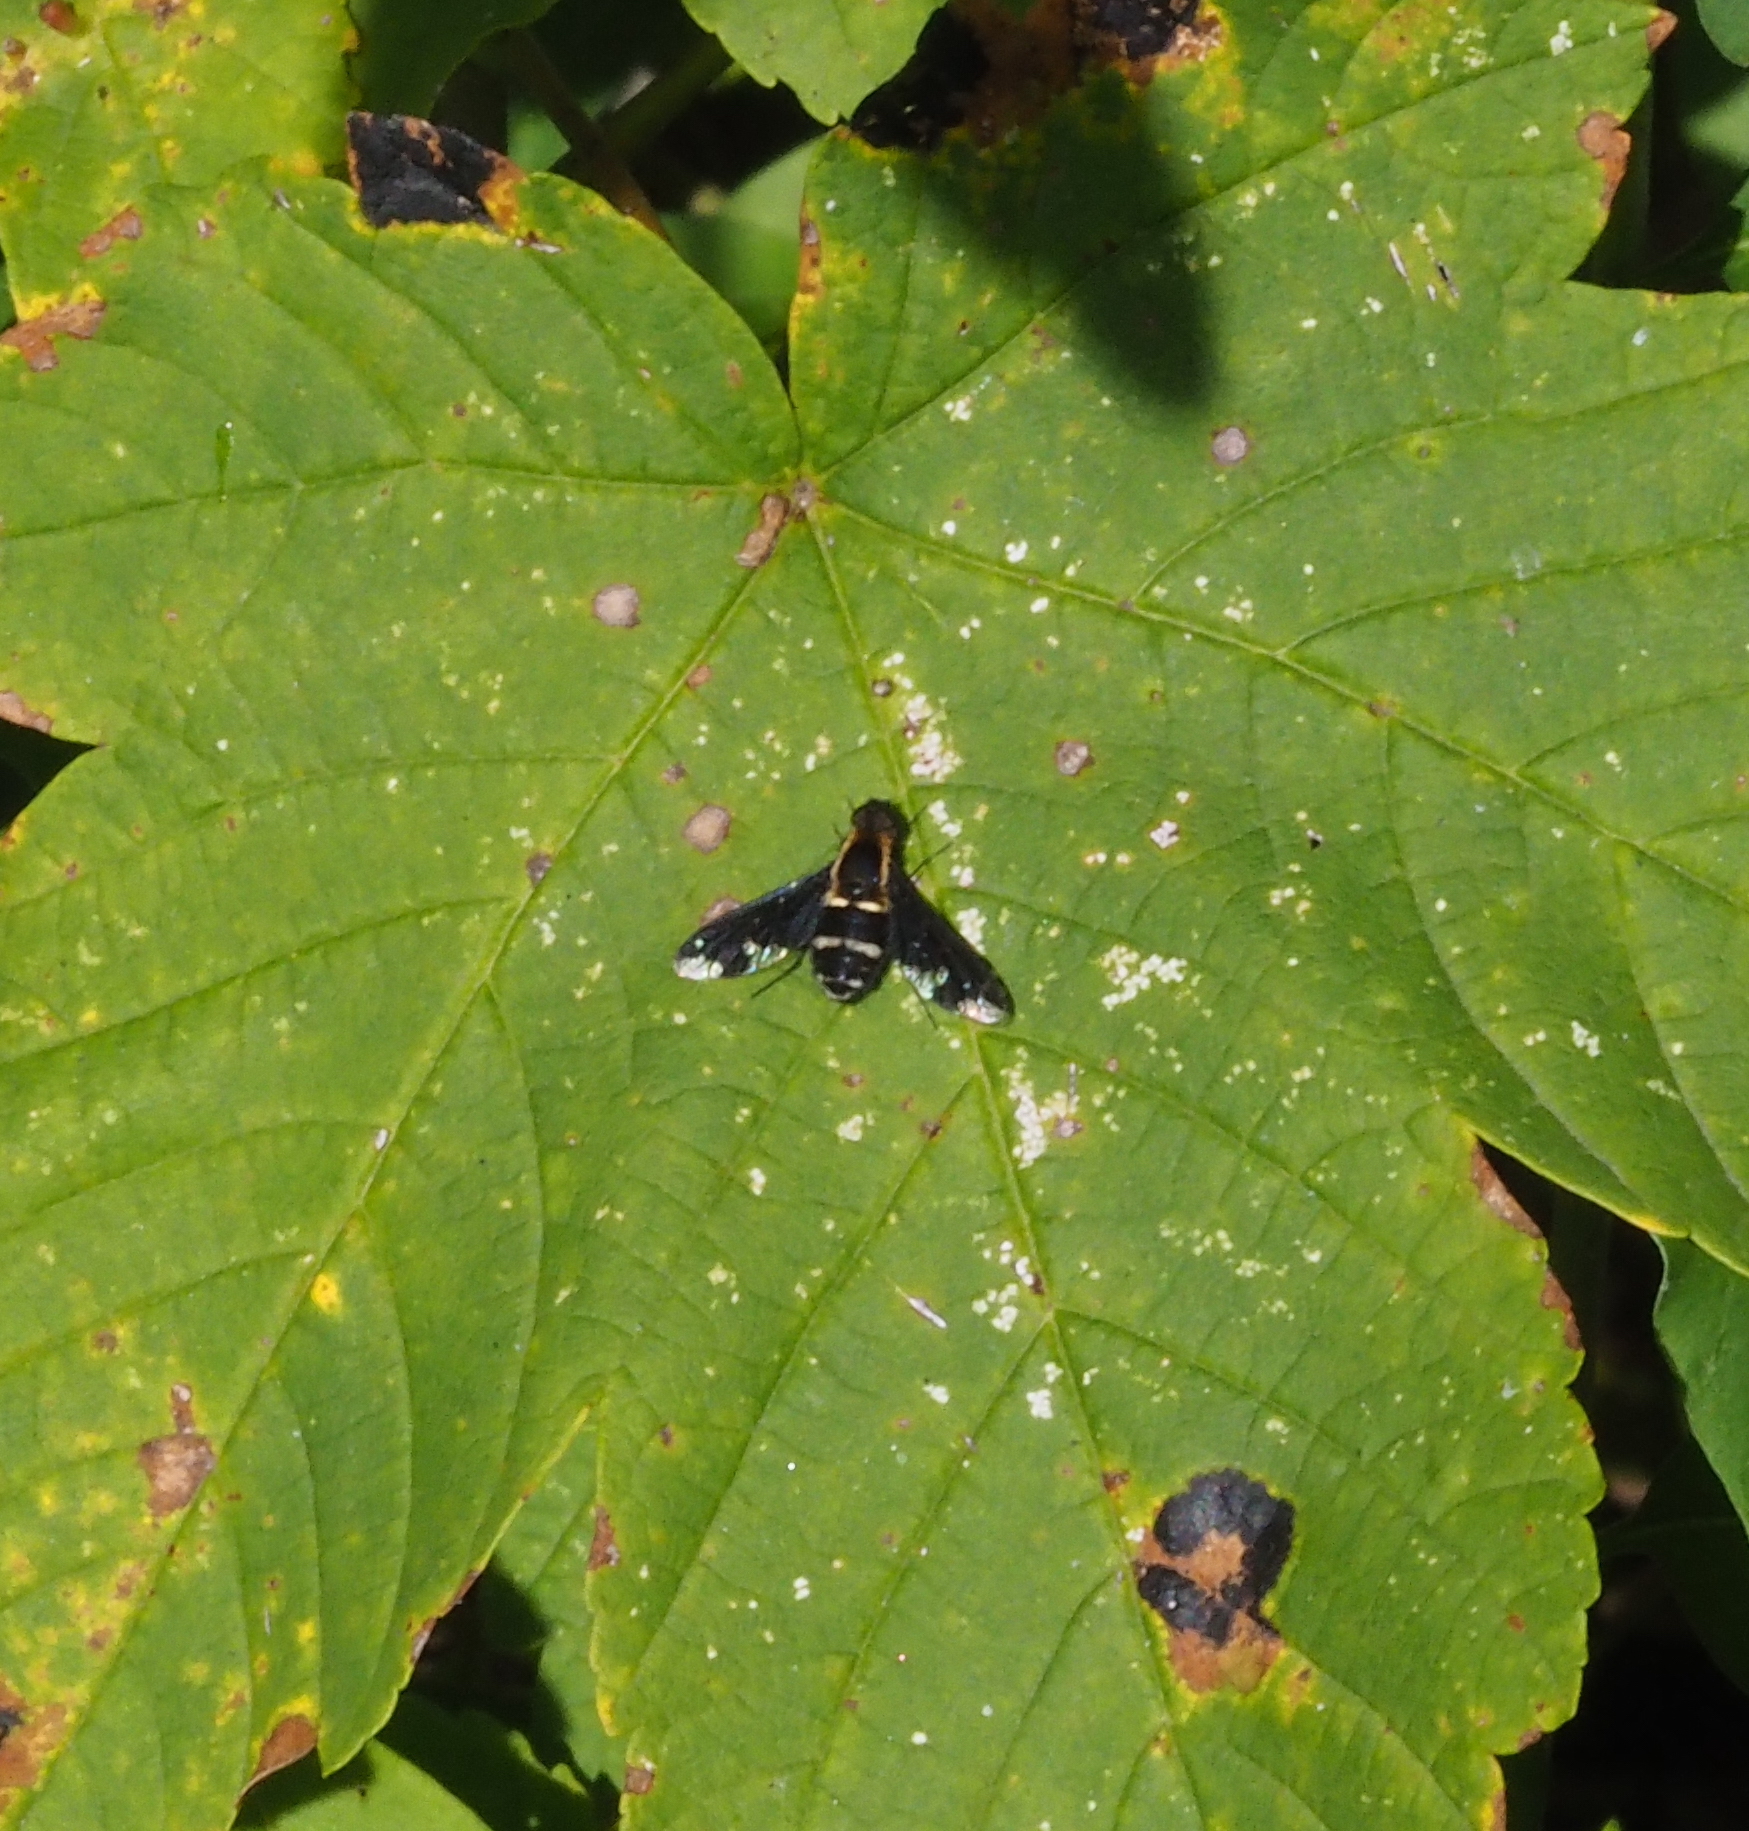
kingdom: Animalia
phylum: Arthropoda
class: Insecta
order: Diptera
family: Bombyliidae
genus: Hemipenthes
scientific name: Hemipenthes maura
